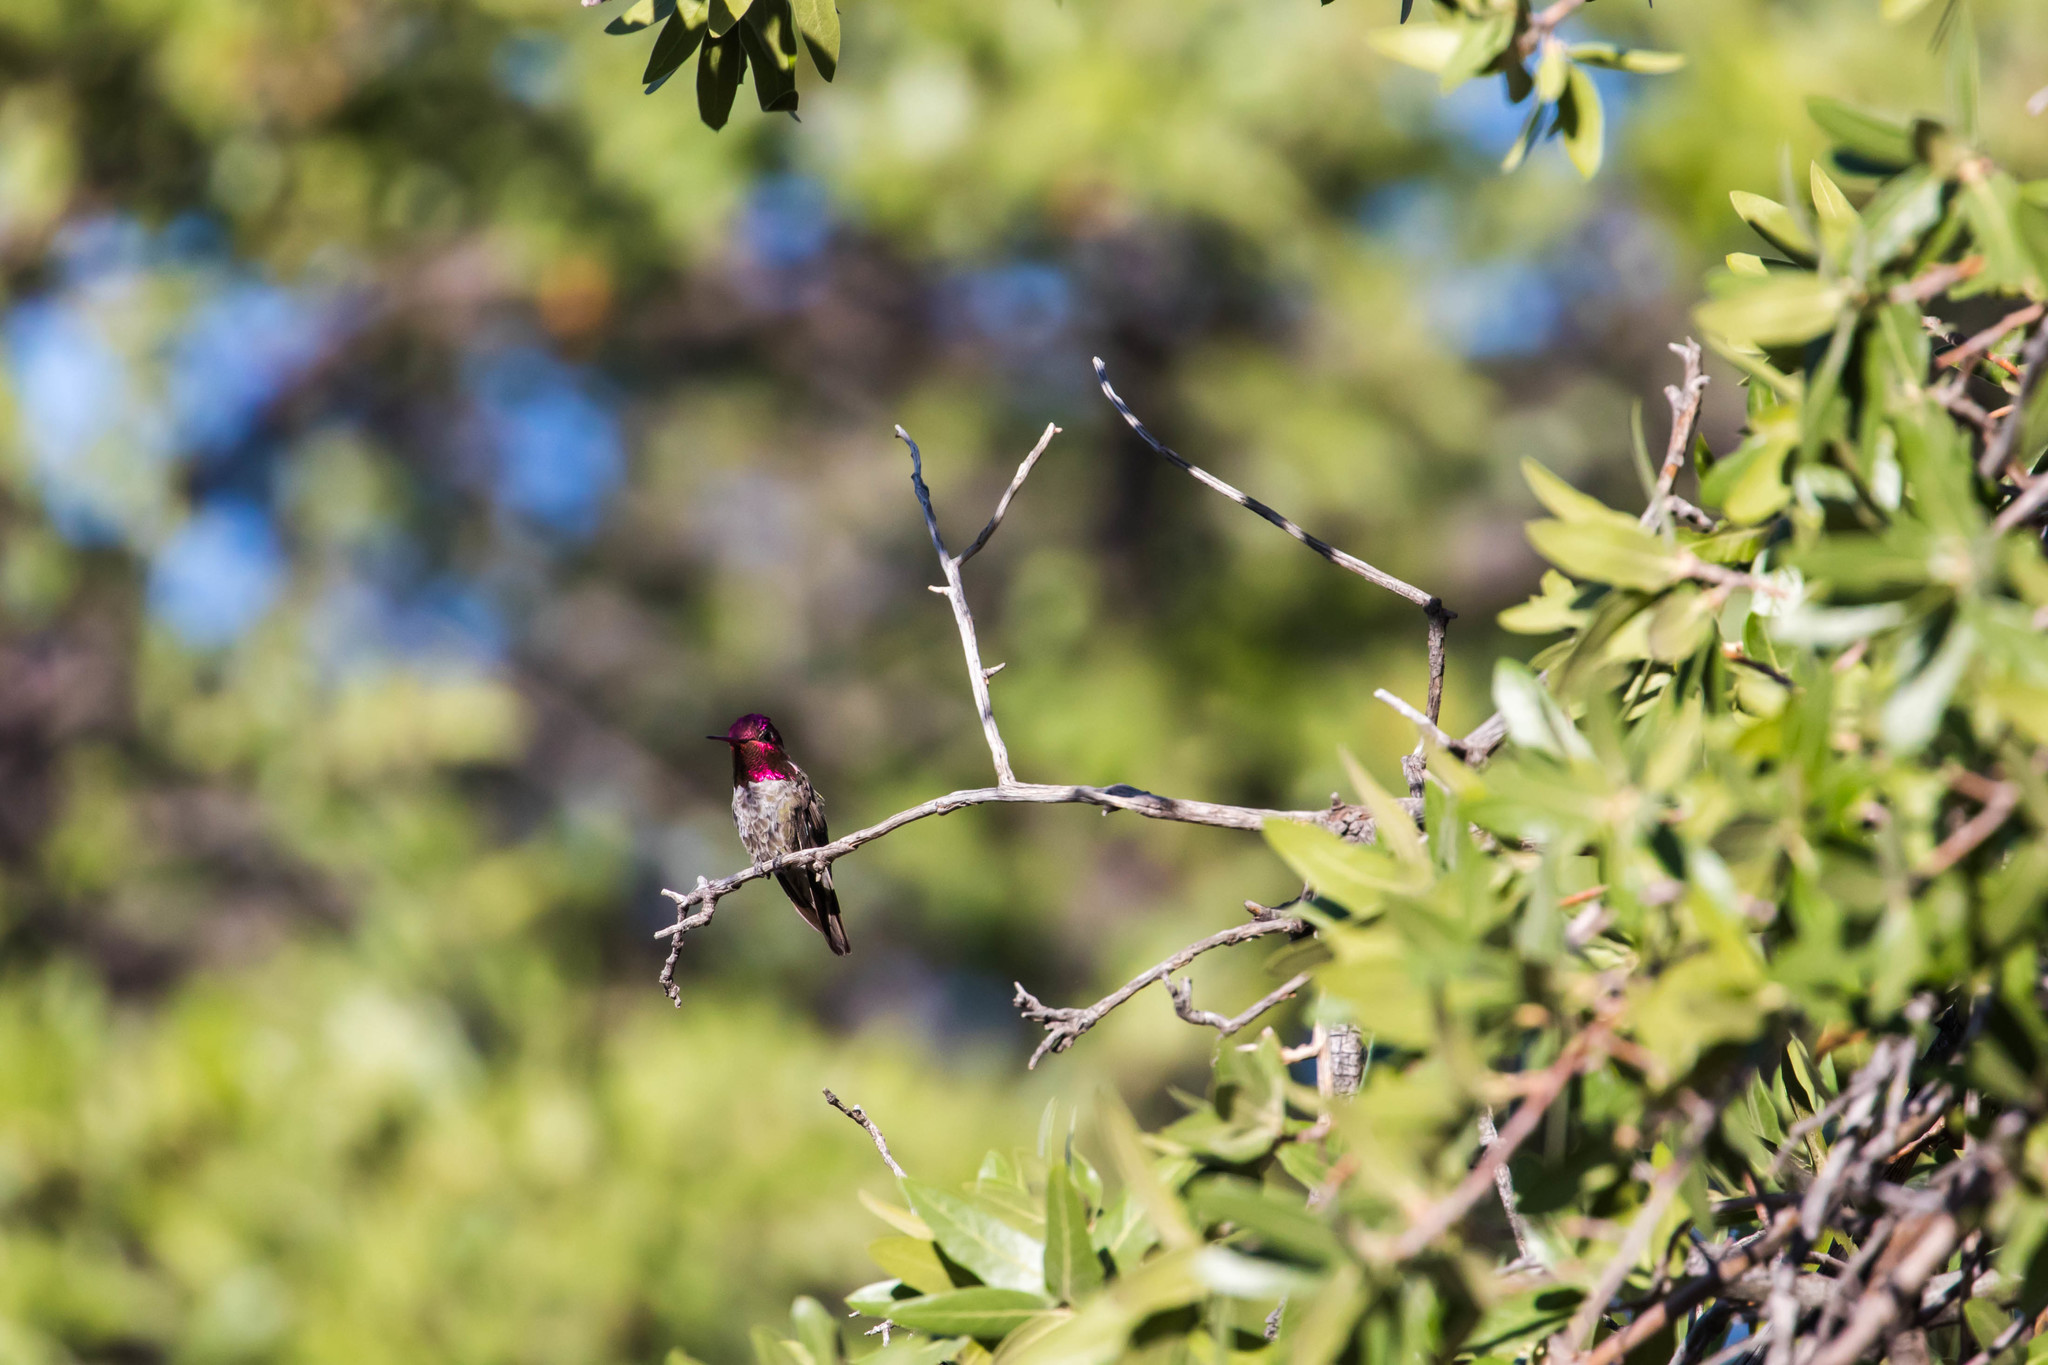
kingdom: Animalia
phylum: Chordata
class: Aves
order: Apodiformes
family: Trochilidae
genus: Calypte
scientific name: Calypte anna
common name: Anna's hummingbird
